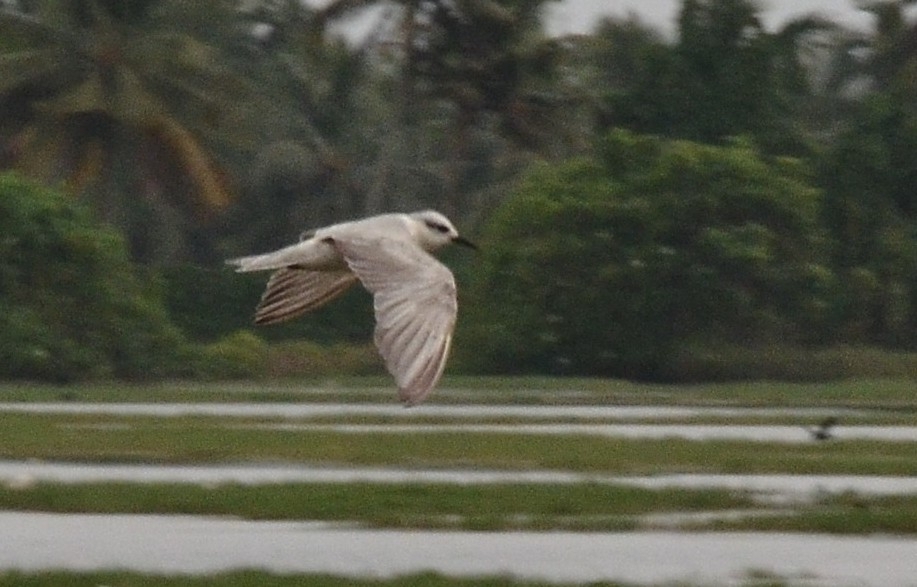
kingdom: Animalia
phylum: Chordata
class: Aves
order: Charadriiformes
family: Laridae
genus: Chlidonias
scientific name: Chlidonias hybrida
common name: Whiskered tern
